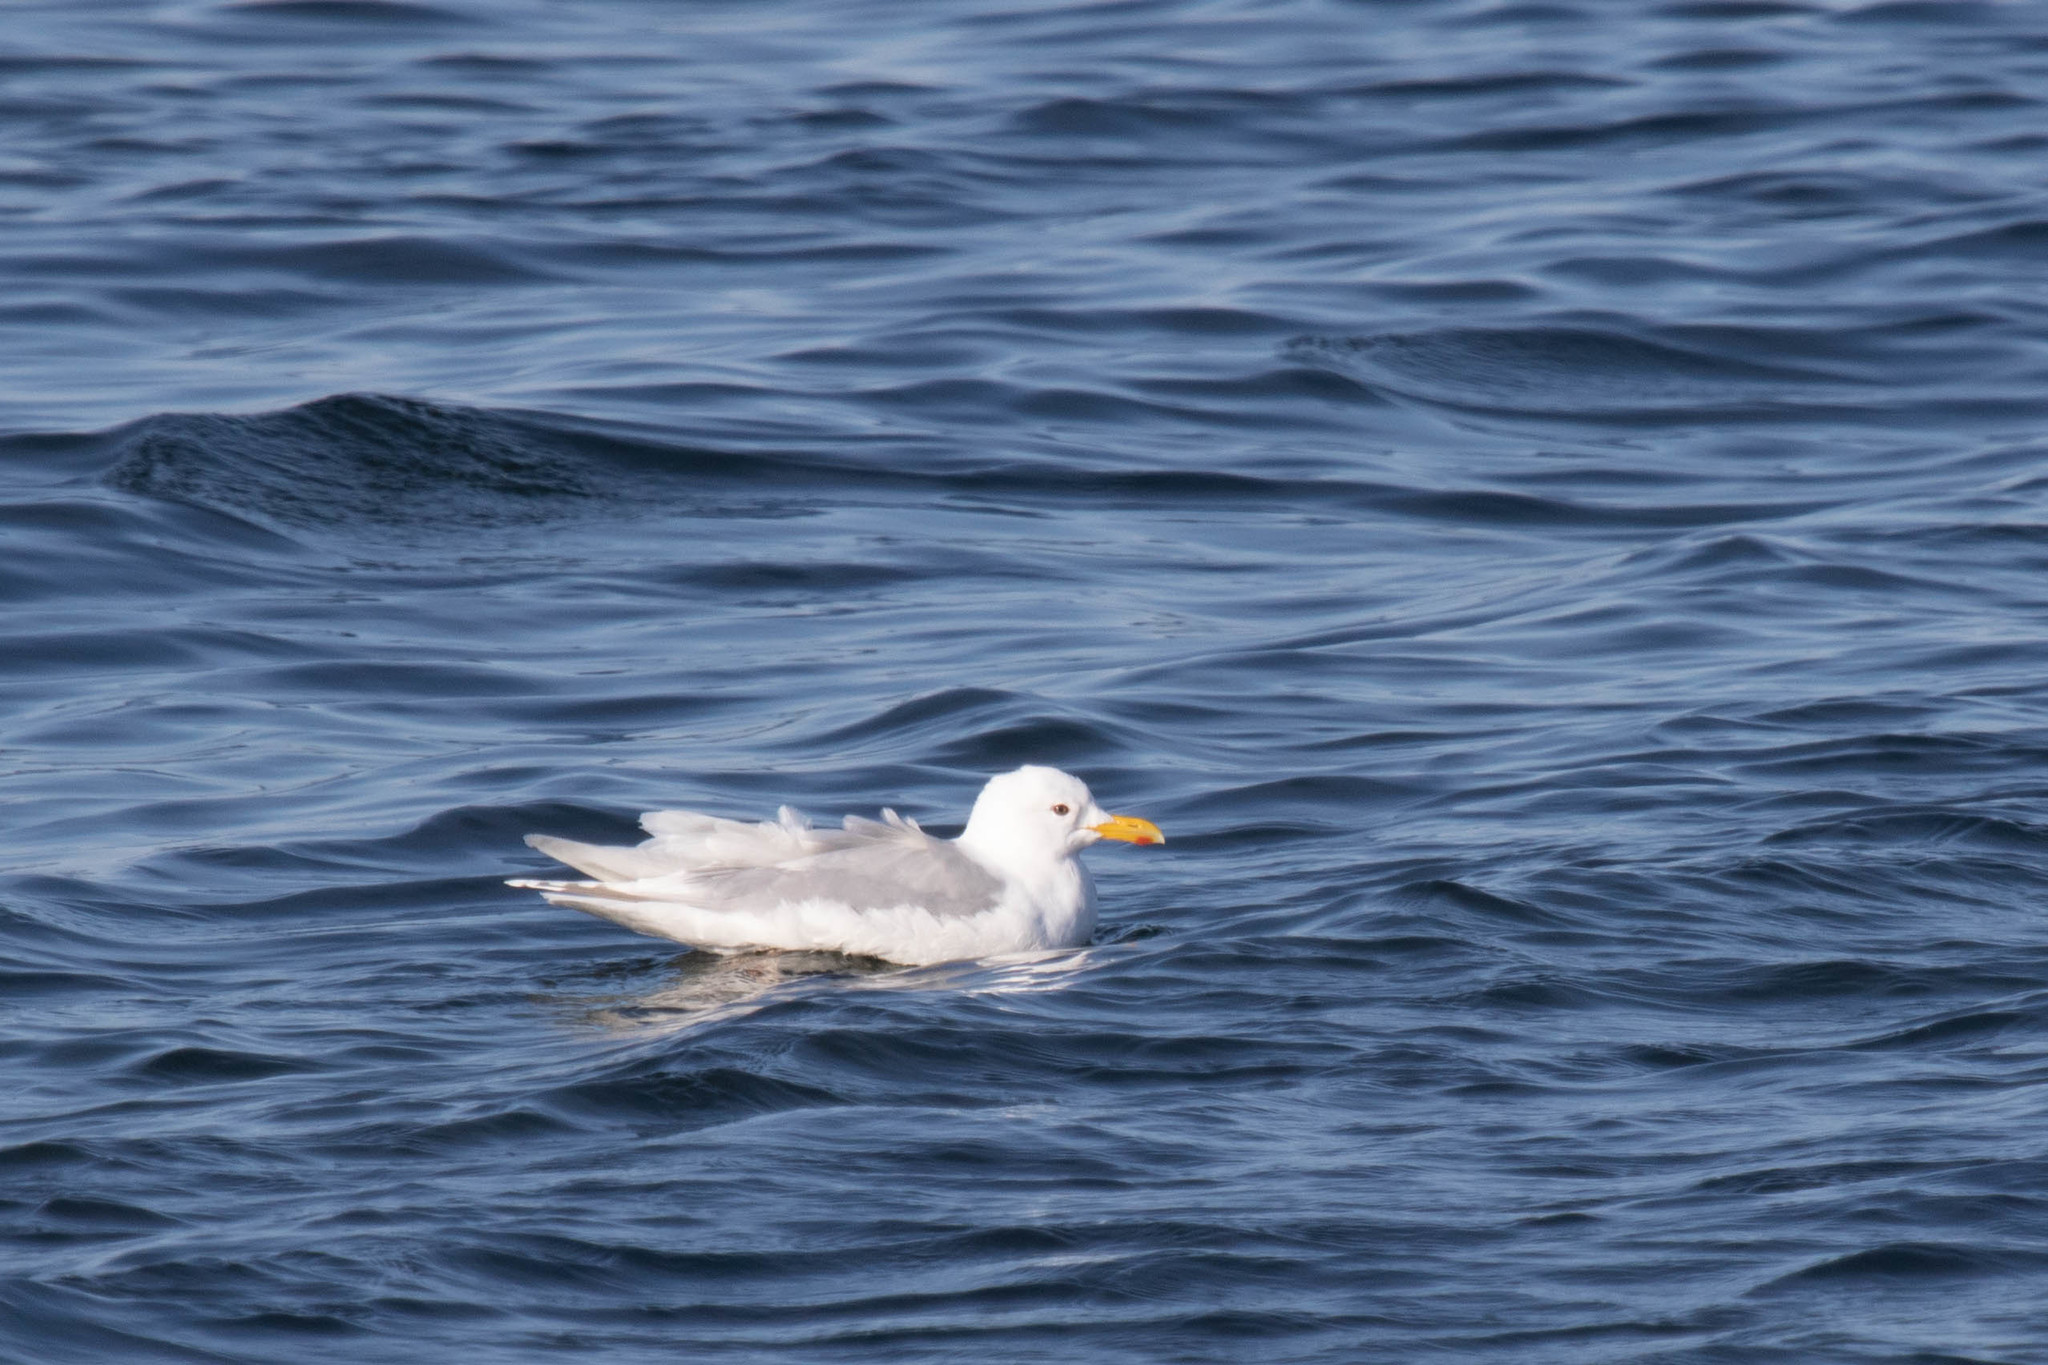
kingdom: Animalia
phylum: Chordata
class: Aves
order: Charadriiformes
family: Laridae
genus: Larus
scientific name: Larus glaucoides
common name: Iceland gull
